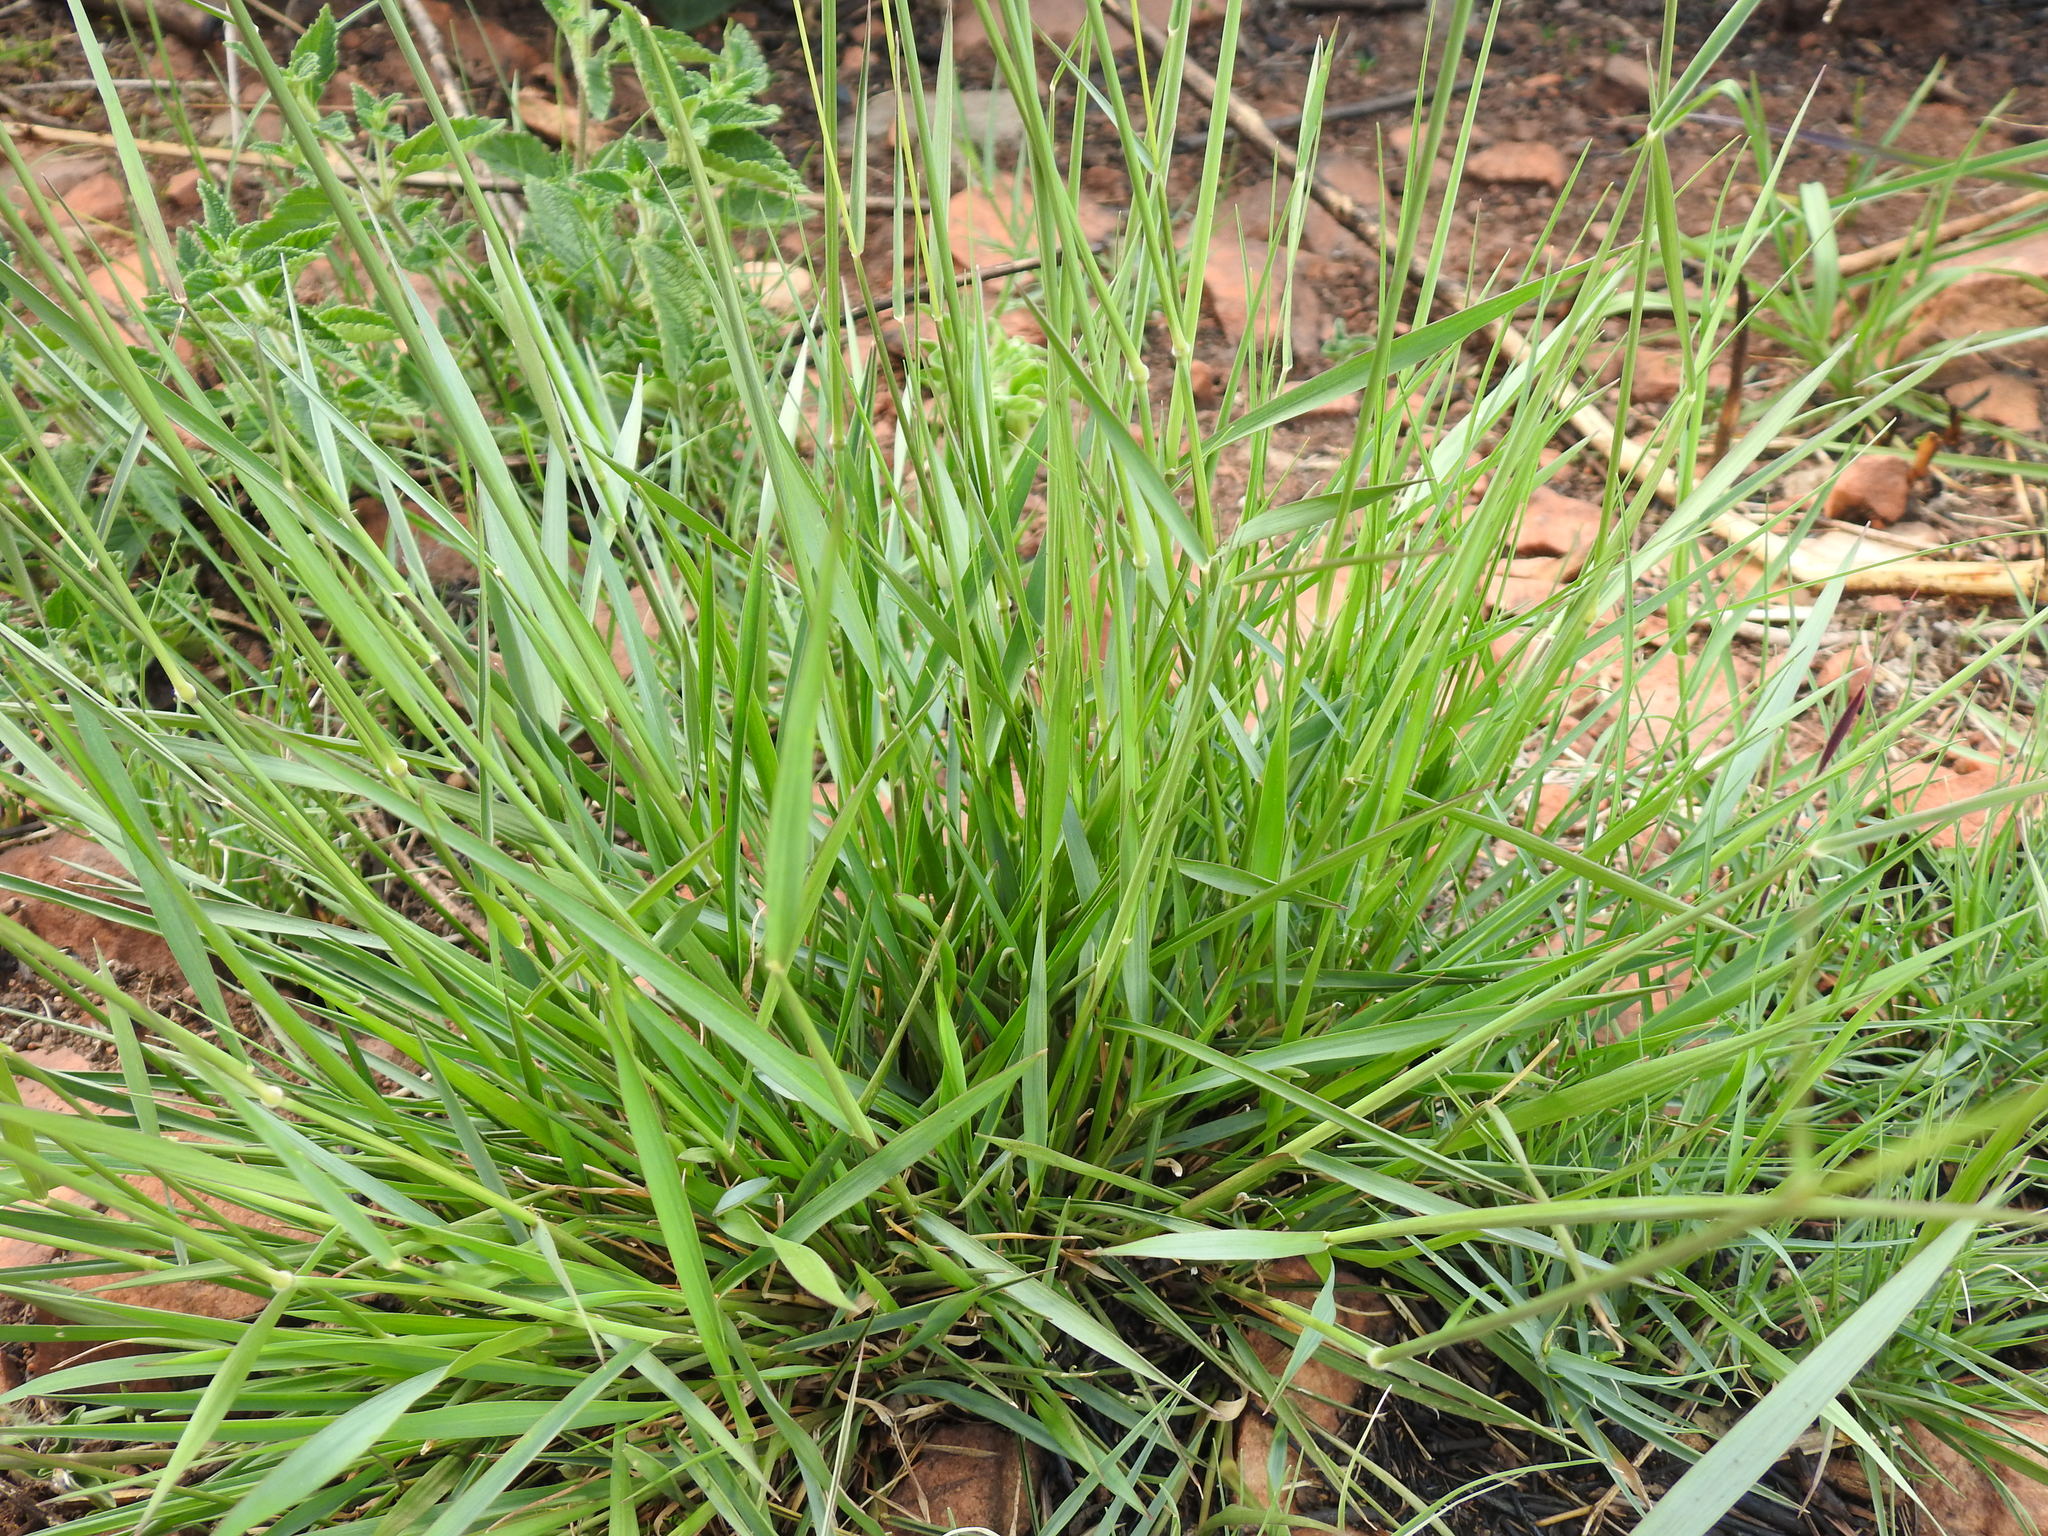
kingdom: Plantae
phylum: Tracheophyta
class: Liliopsida
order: Poales
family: Poaceae
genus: Melinis
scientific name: Melinis repens
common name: Rose natal grass
